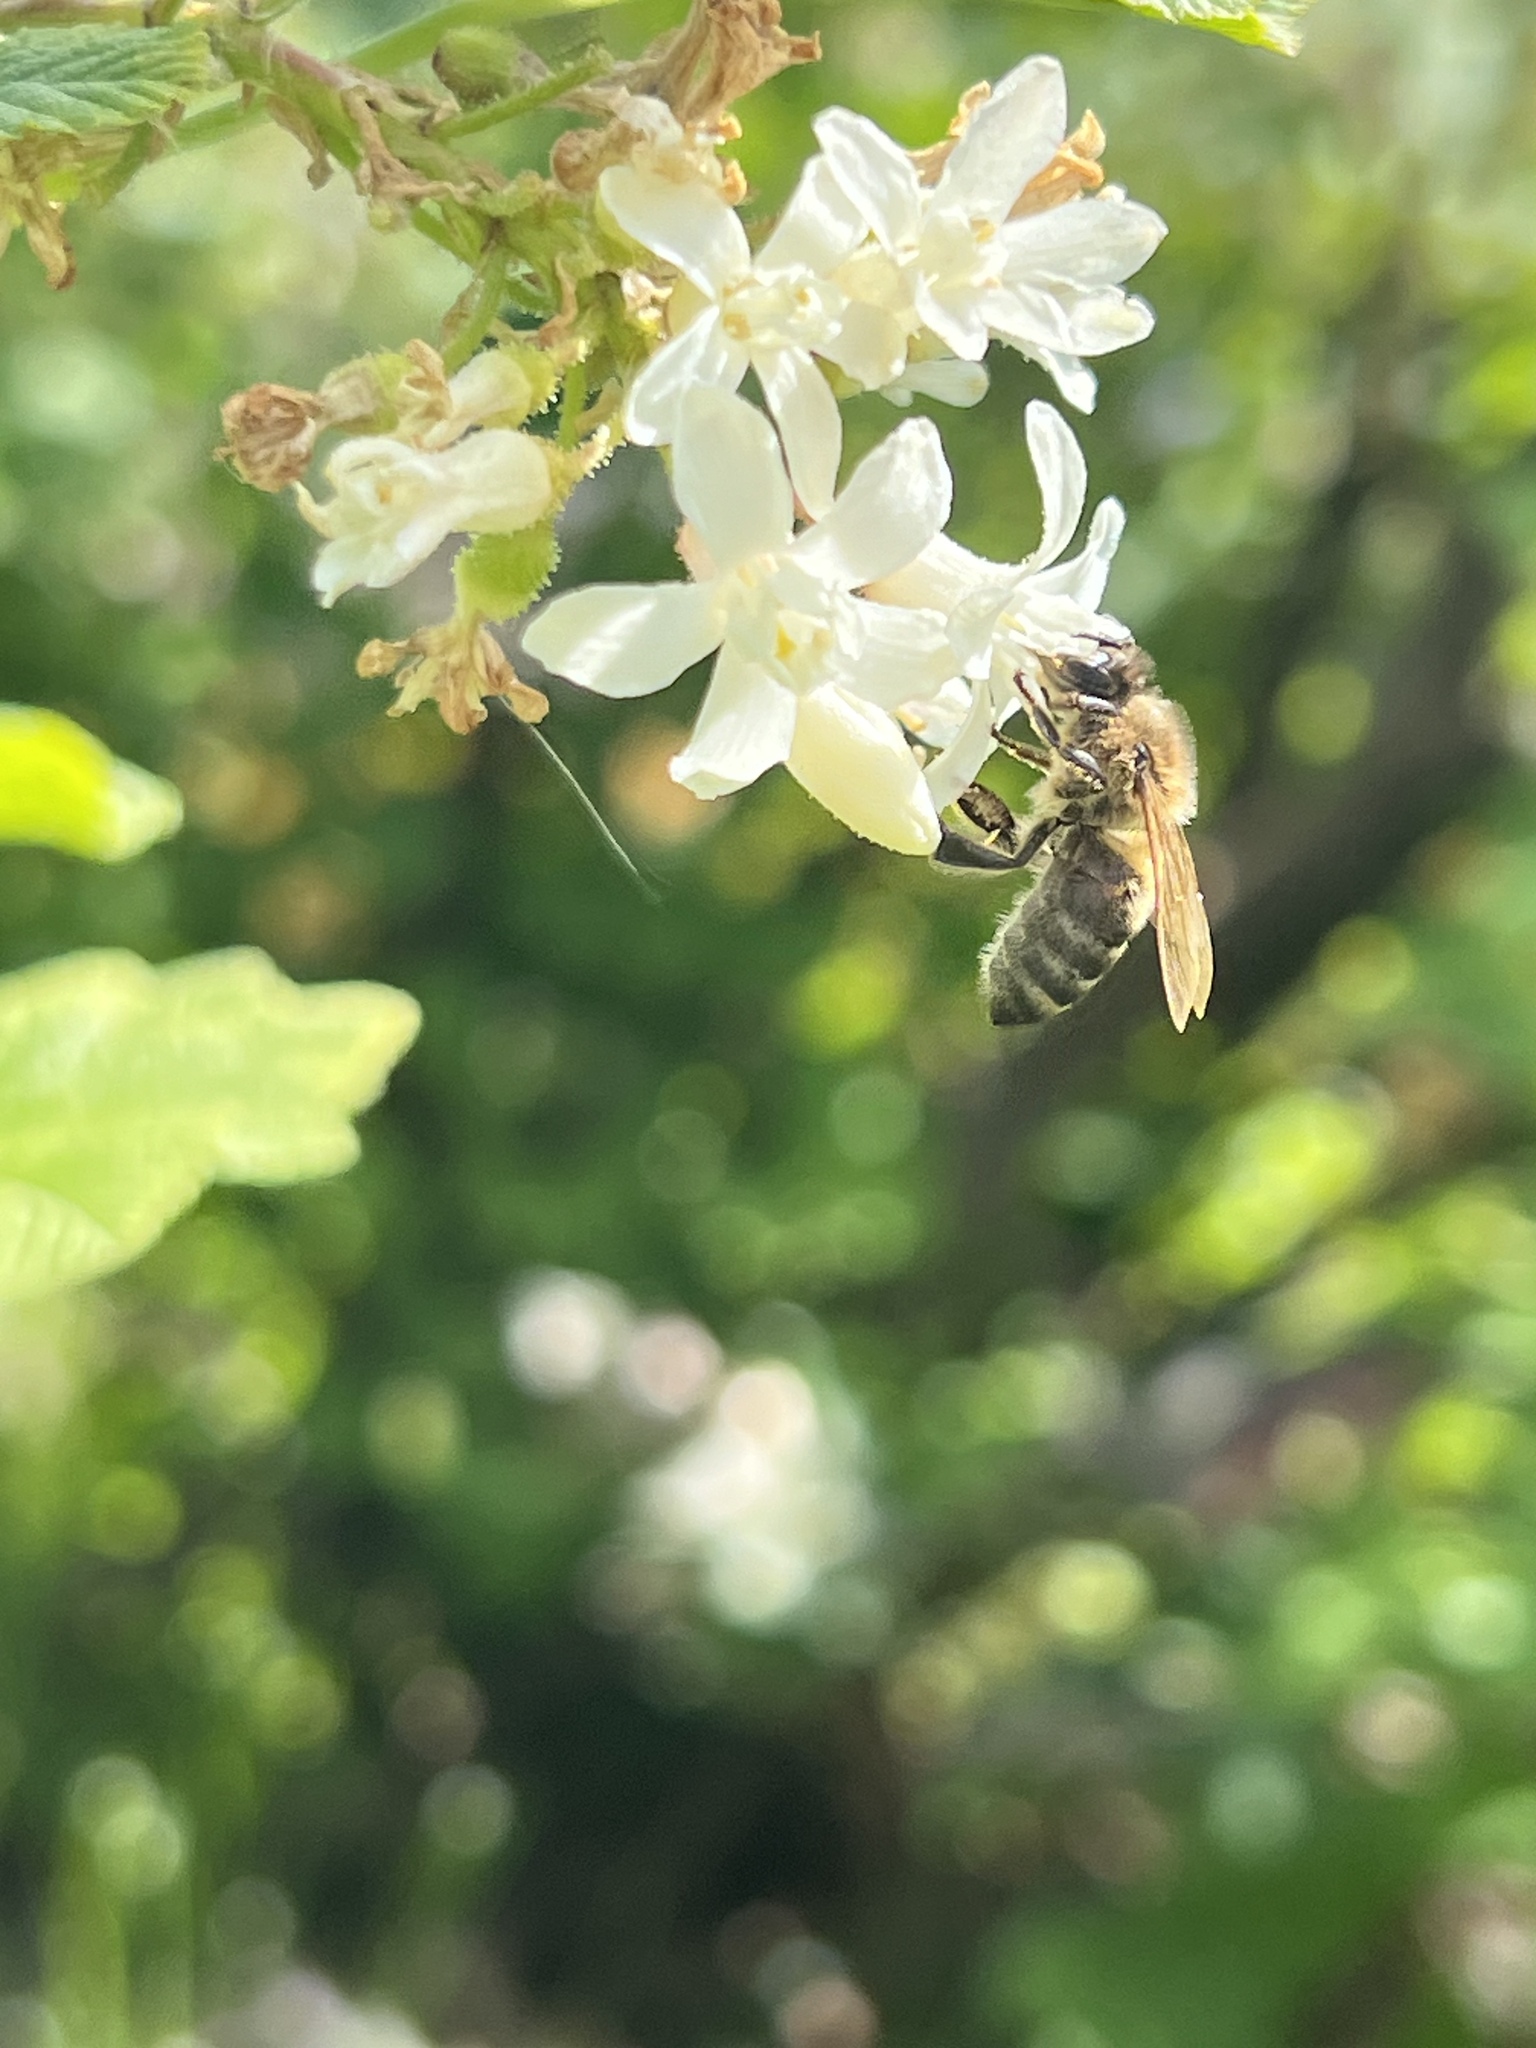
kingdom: Animalia
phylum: Arthropoda
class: Insecta
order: Hymenoptera
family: Apidae
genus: Apis
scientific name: Apis mellifera
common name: Honey bee
